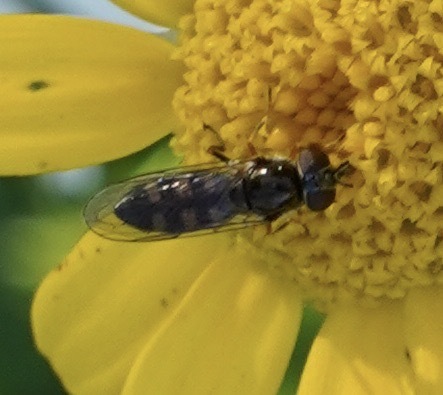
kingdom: Animalia
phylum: Arthropoda
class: Insecta
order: Diptera
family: Syrphidae
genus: Platycheirus
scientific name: Platycheirus
